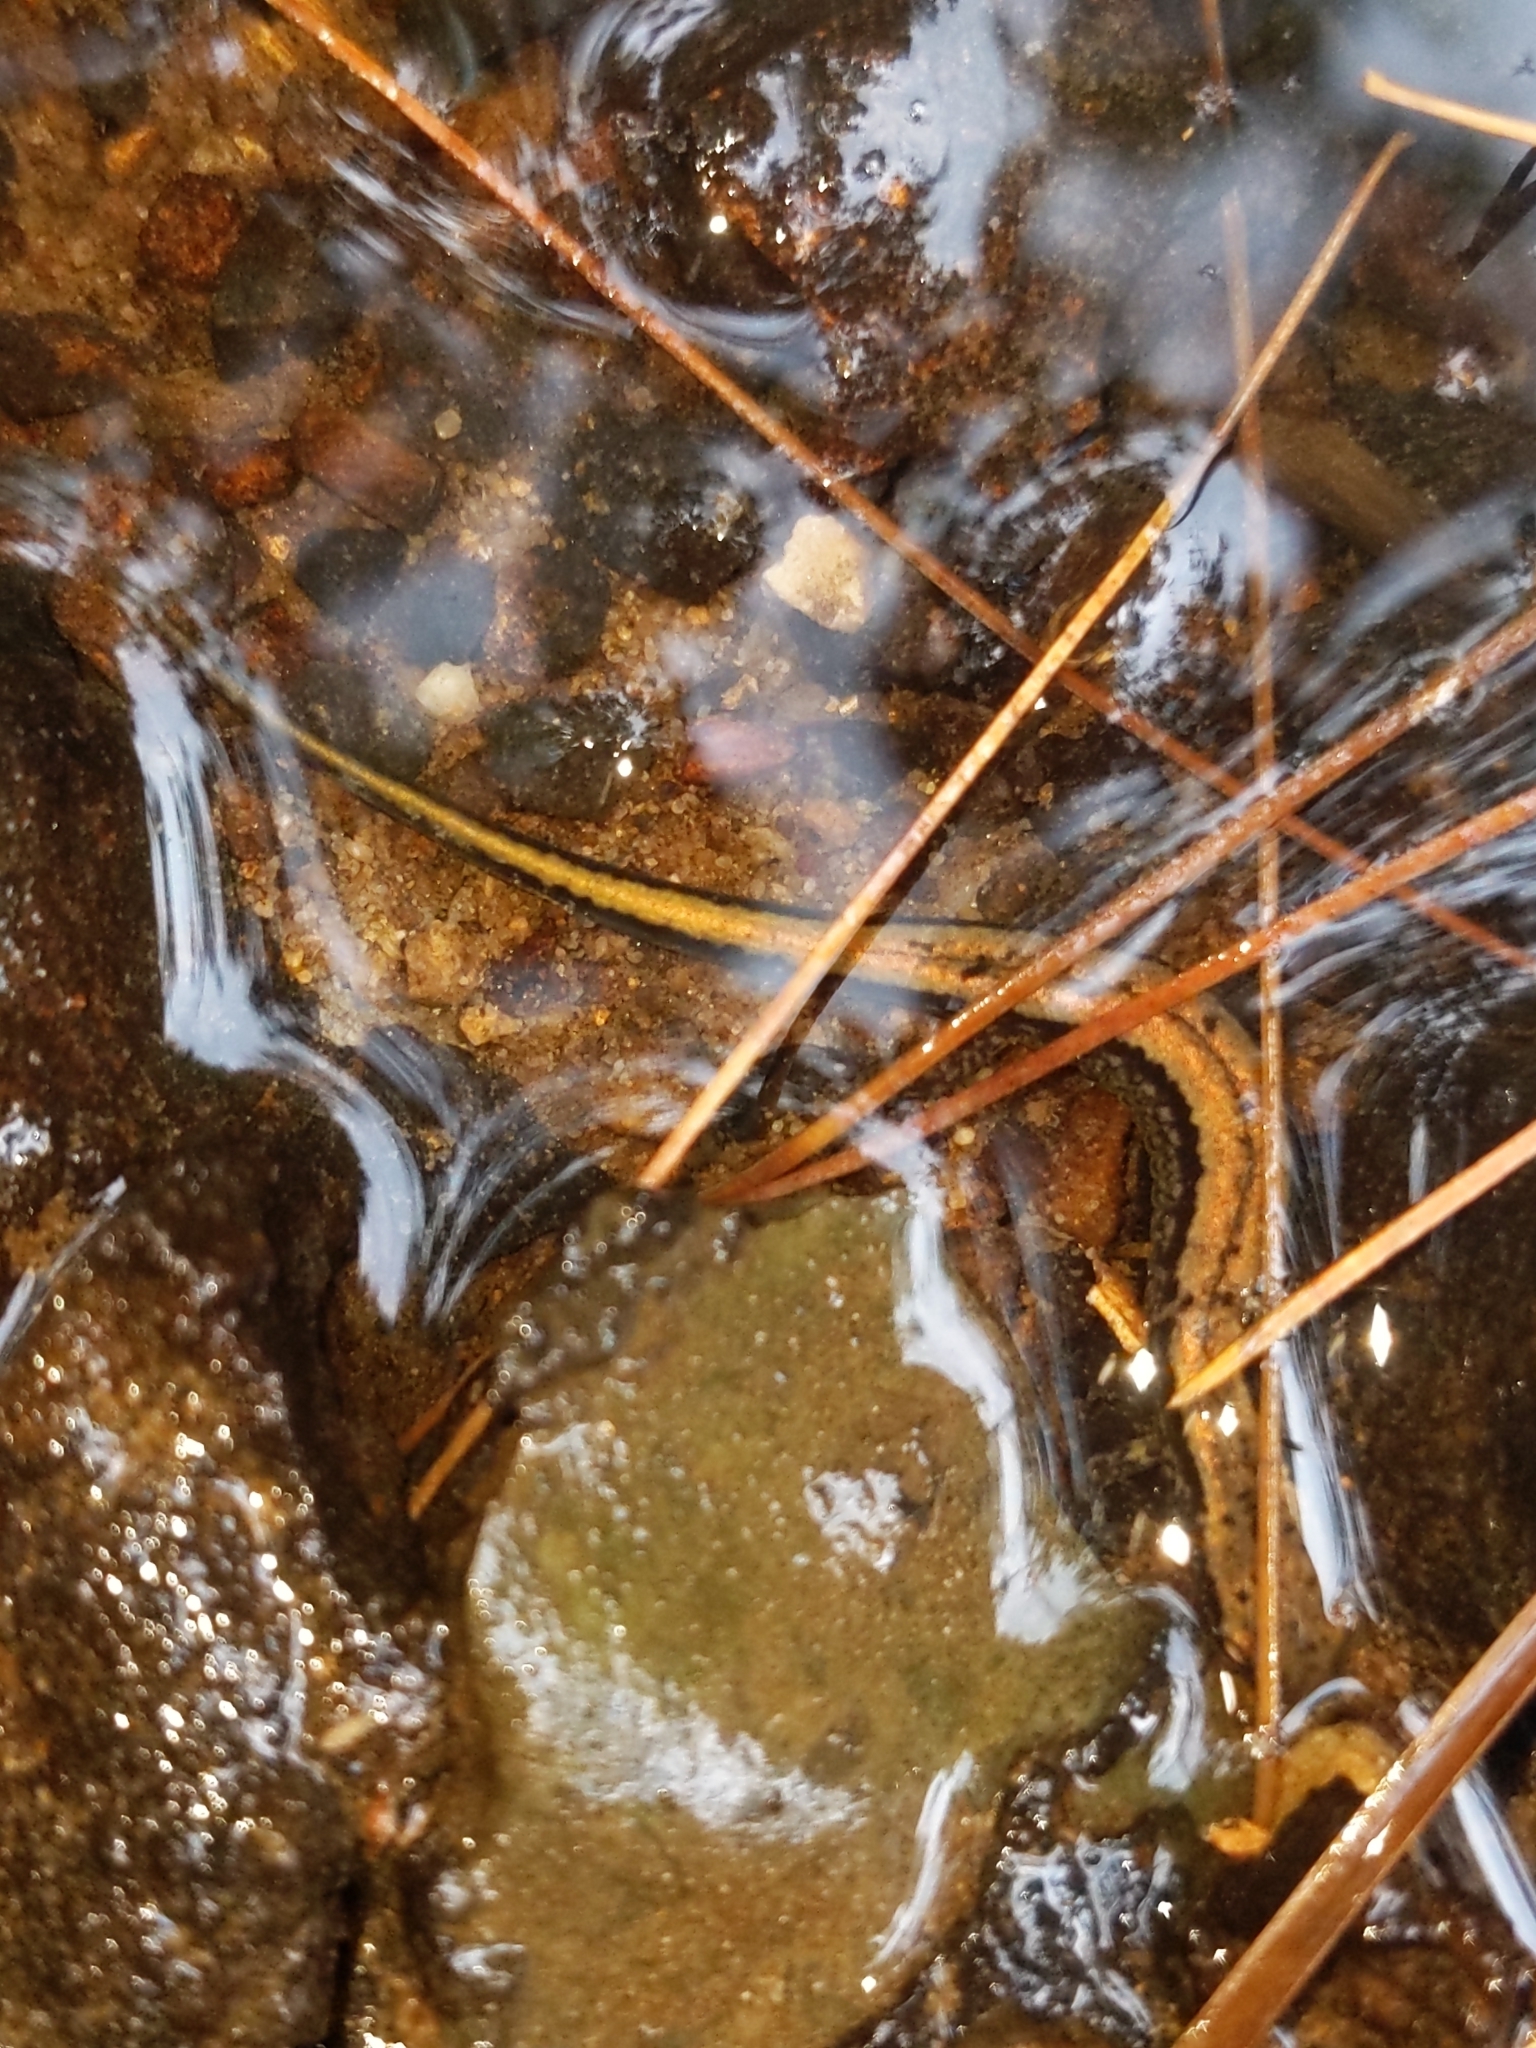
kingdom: Animalia
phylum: Chordata
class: Amphibia
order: Caudata
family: Plethodontidae
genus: Eurycea
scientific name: Eurycea bislineata
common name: Northern two-lined salamander
